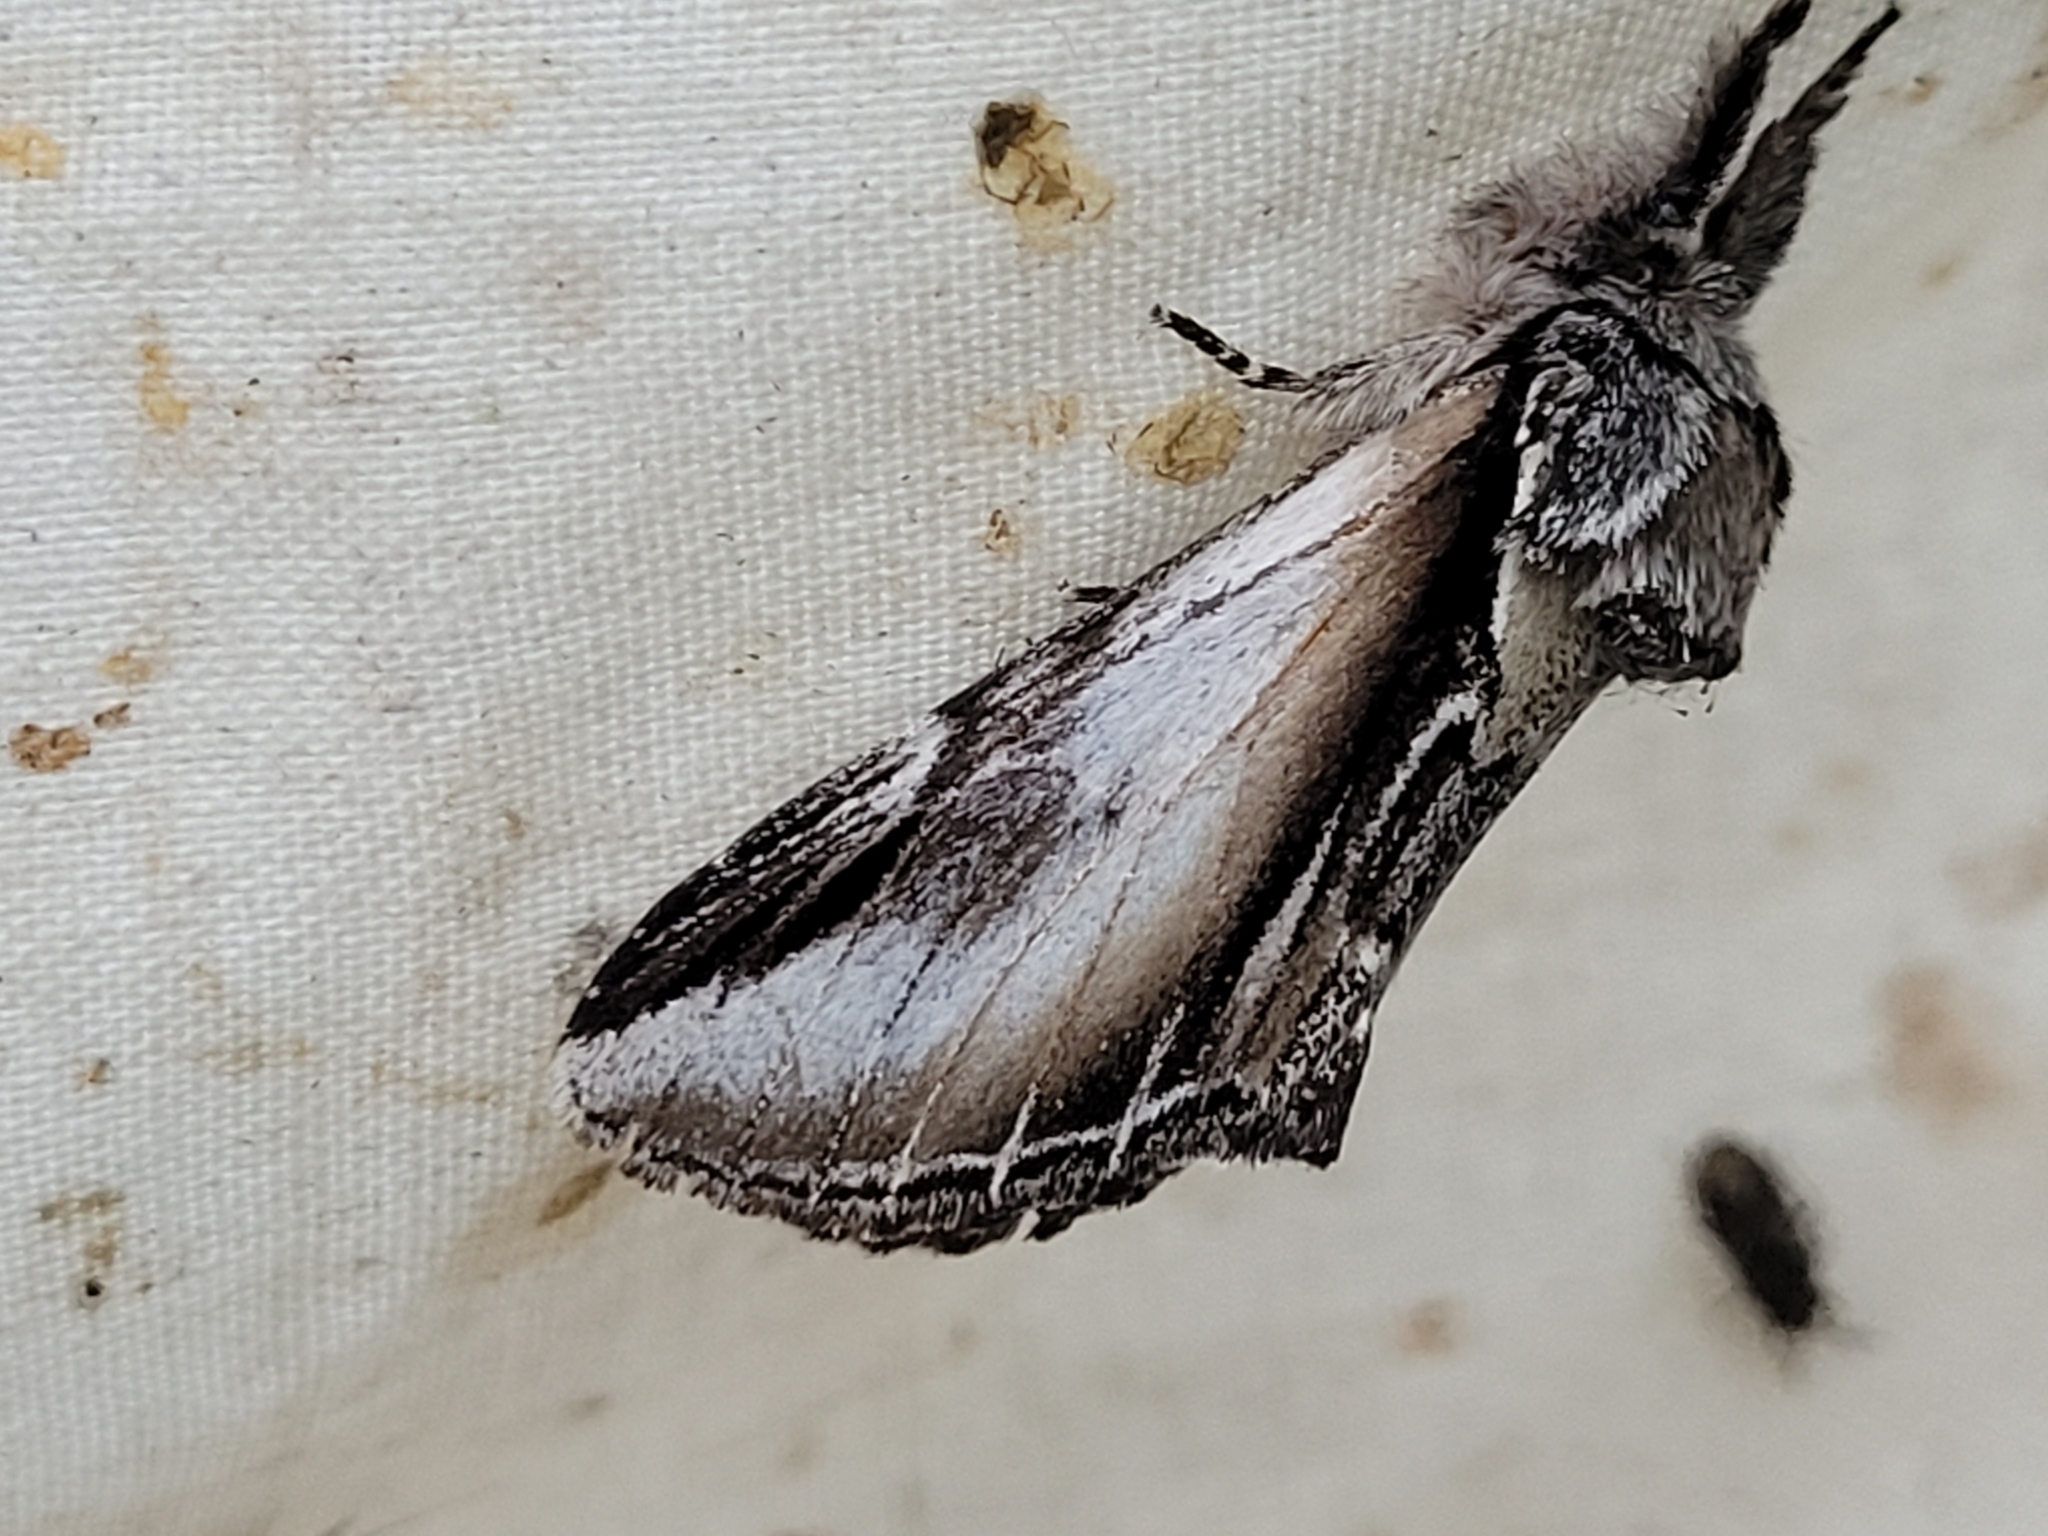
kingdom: Animalia
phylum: Arthropoda
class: Insecta
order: Lepidoptera
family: Notodontidae
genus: Pheosia
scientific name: Pheosia rimosa
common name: Black-rimmed prominent
